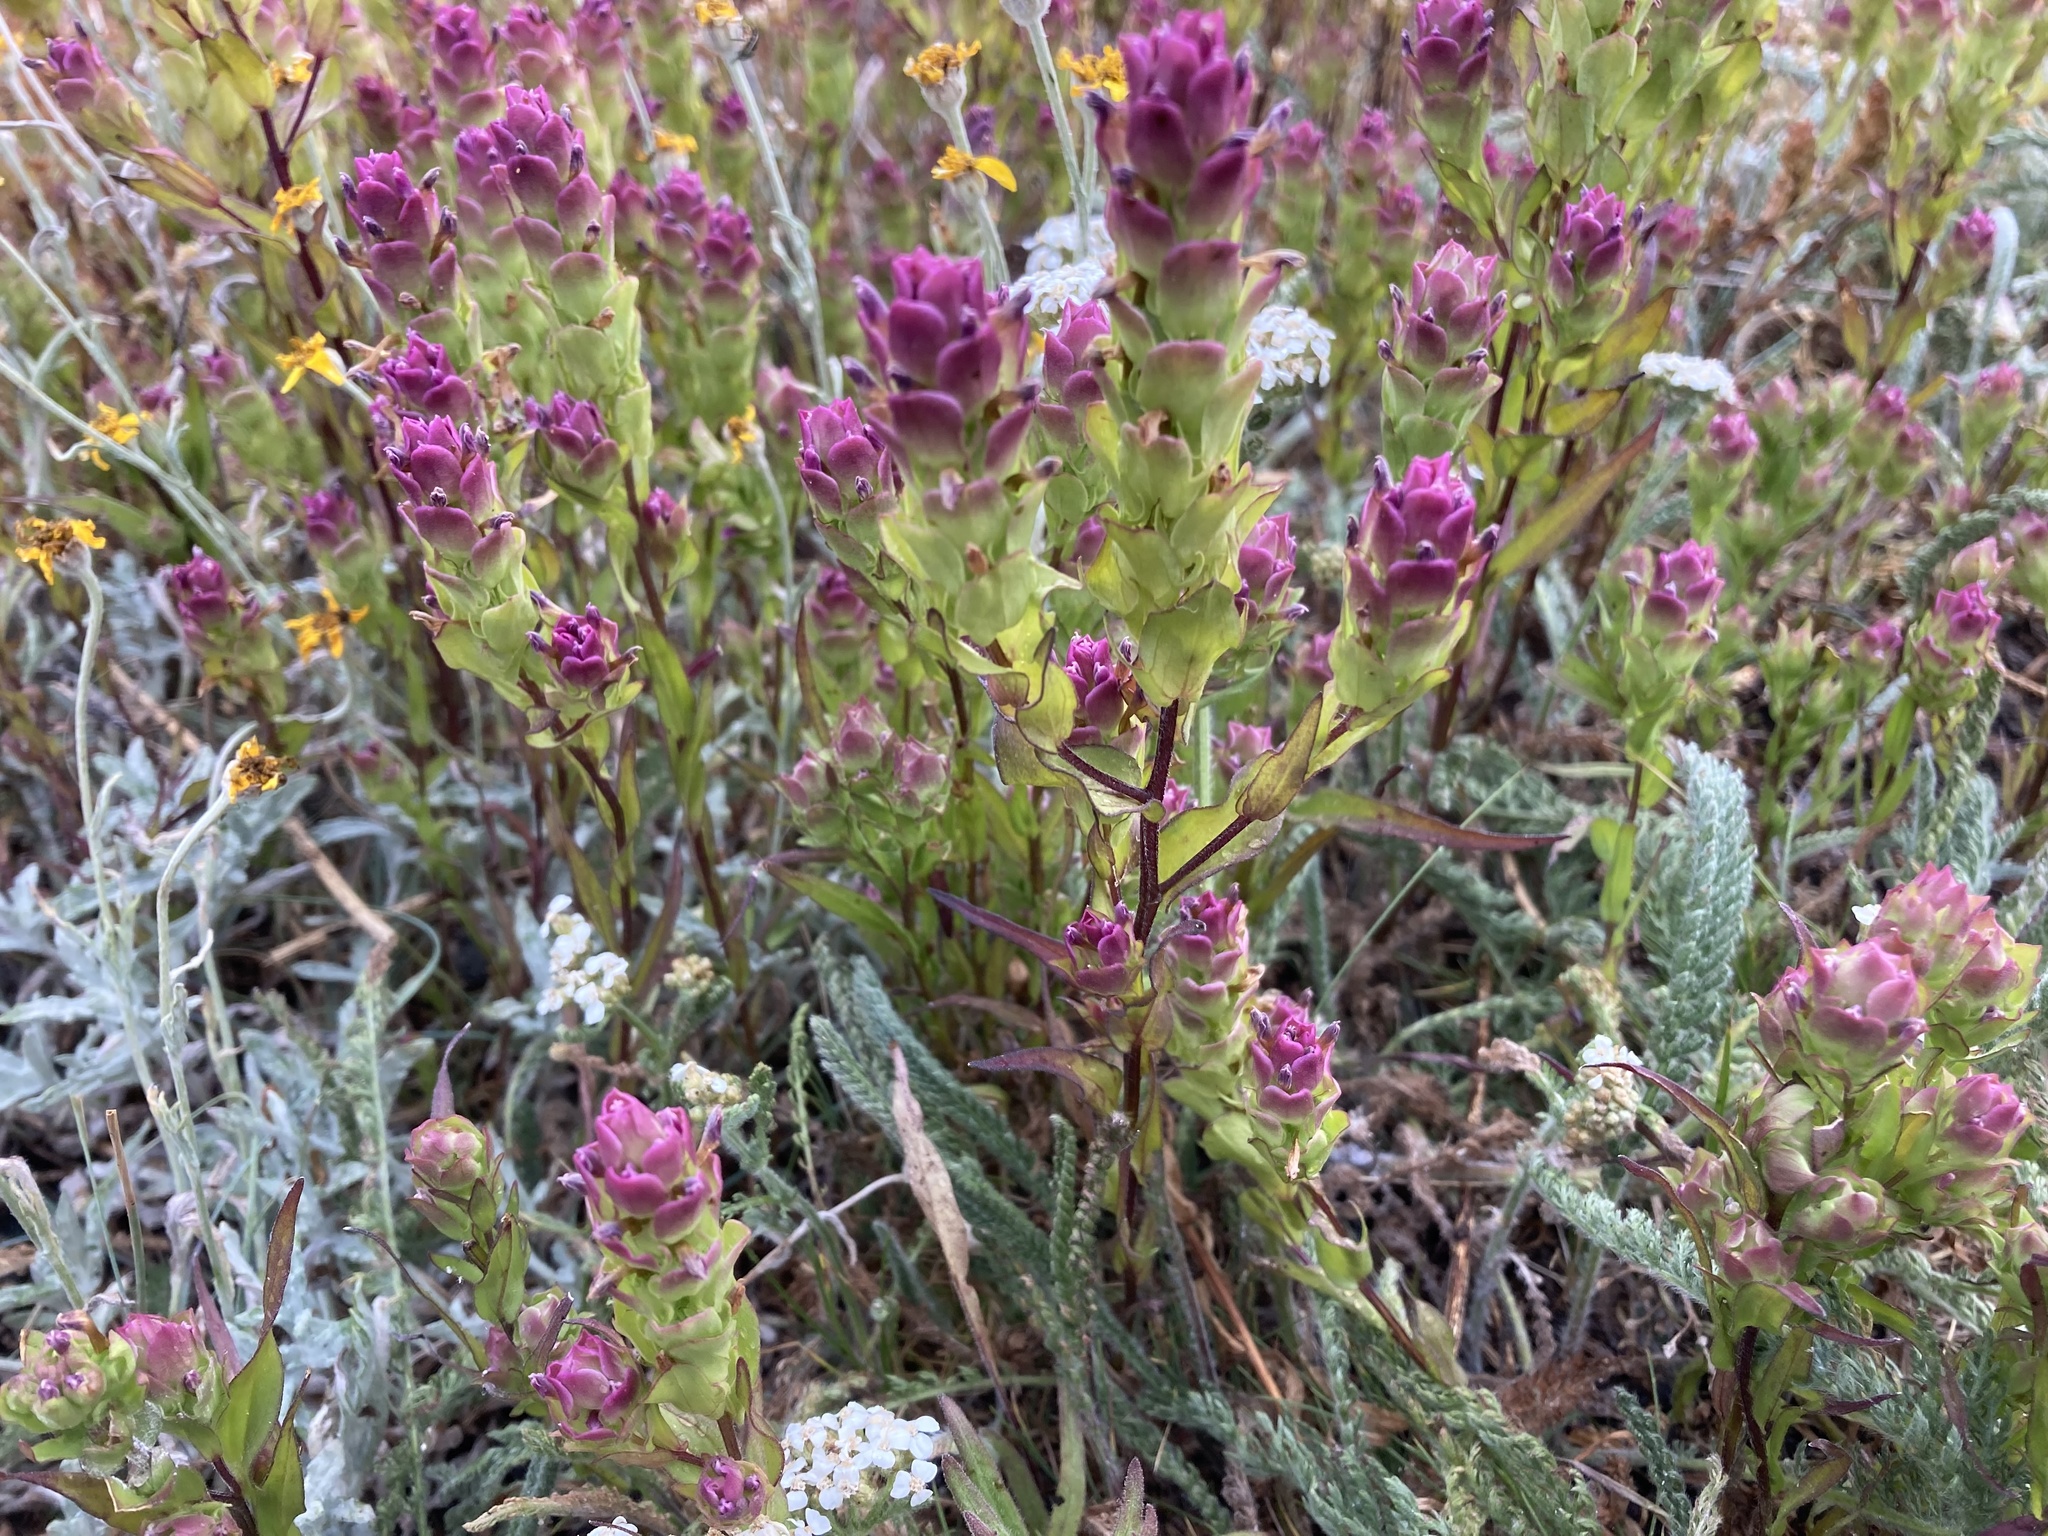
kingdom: Plantae
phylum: Tracheophyta
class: Magnoliopsida
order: Lamiales
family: Orobanchaceae
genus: Orthocarpus
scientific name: Orthocarpus imbricatus
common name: Mountain owl's-clover
